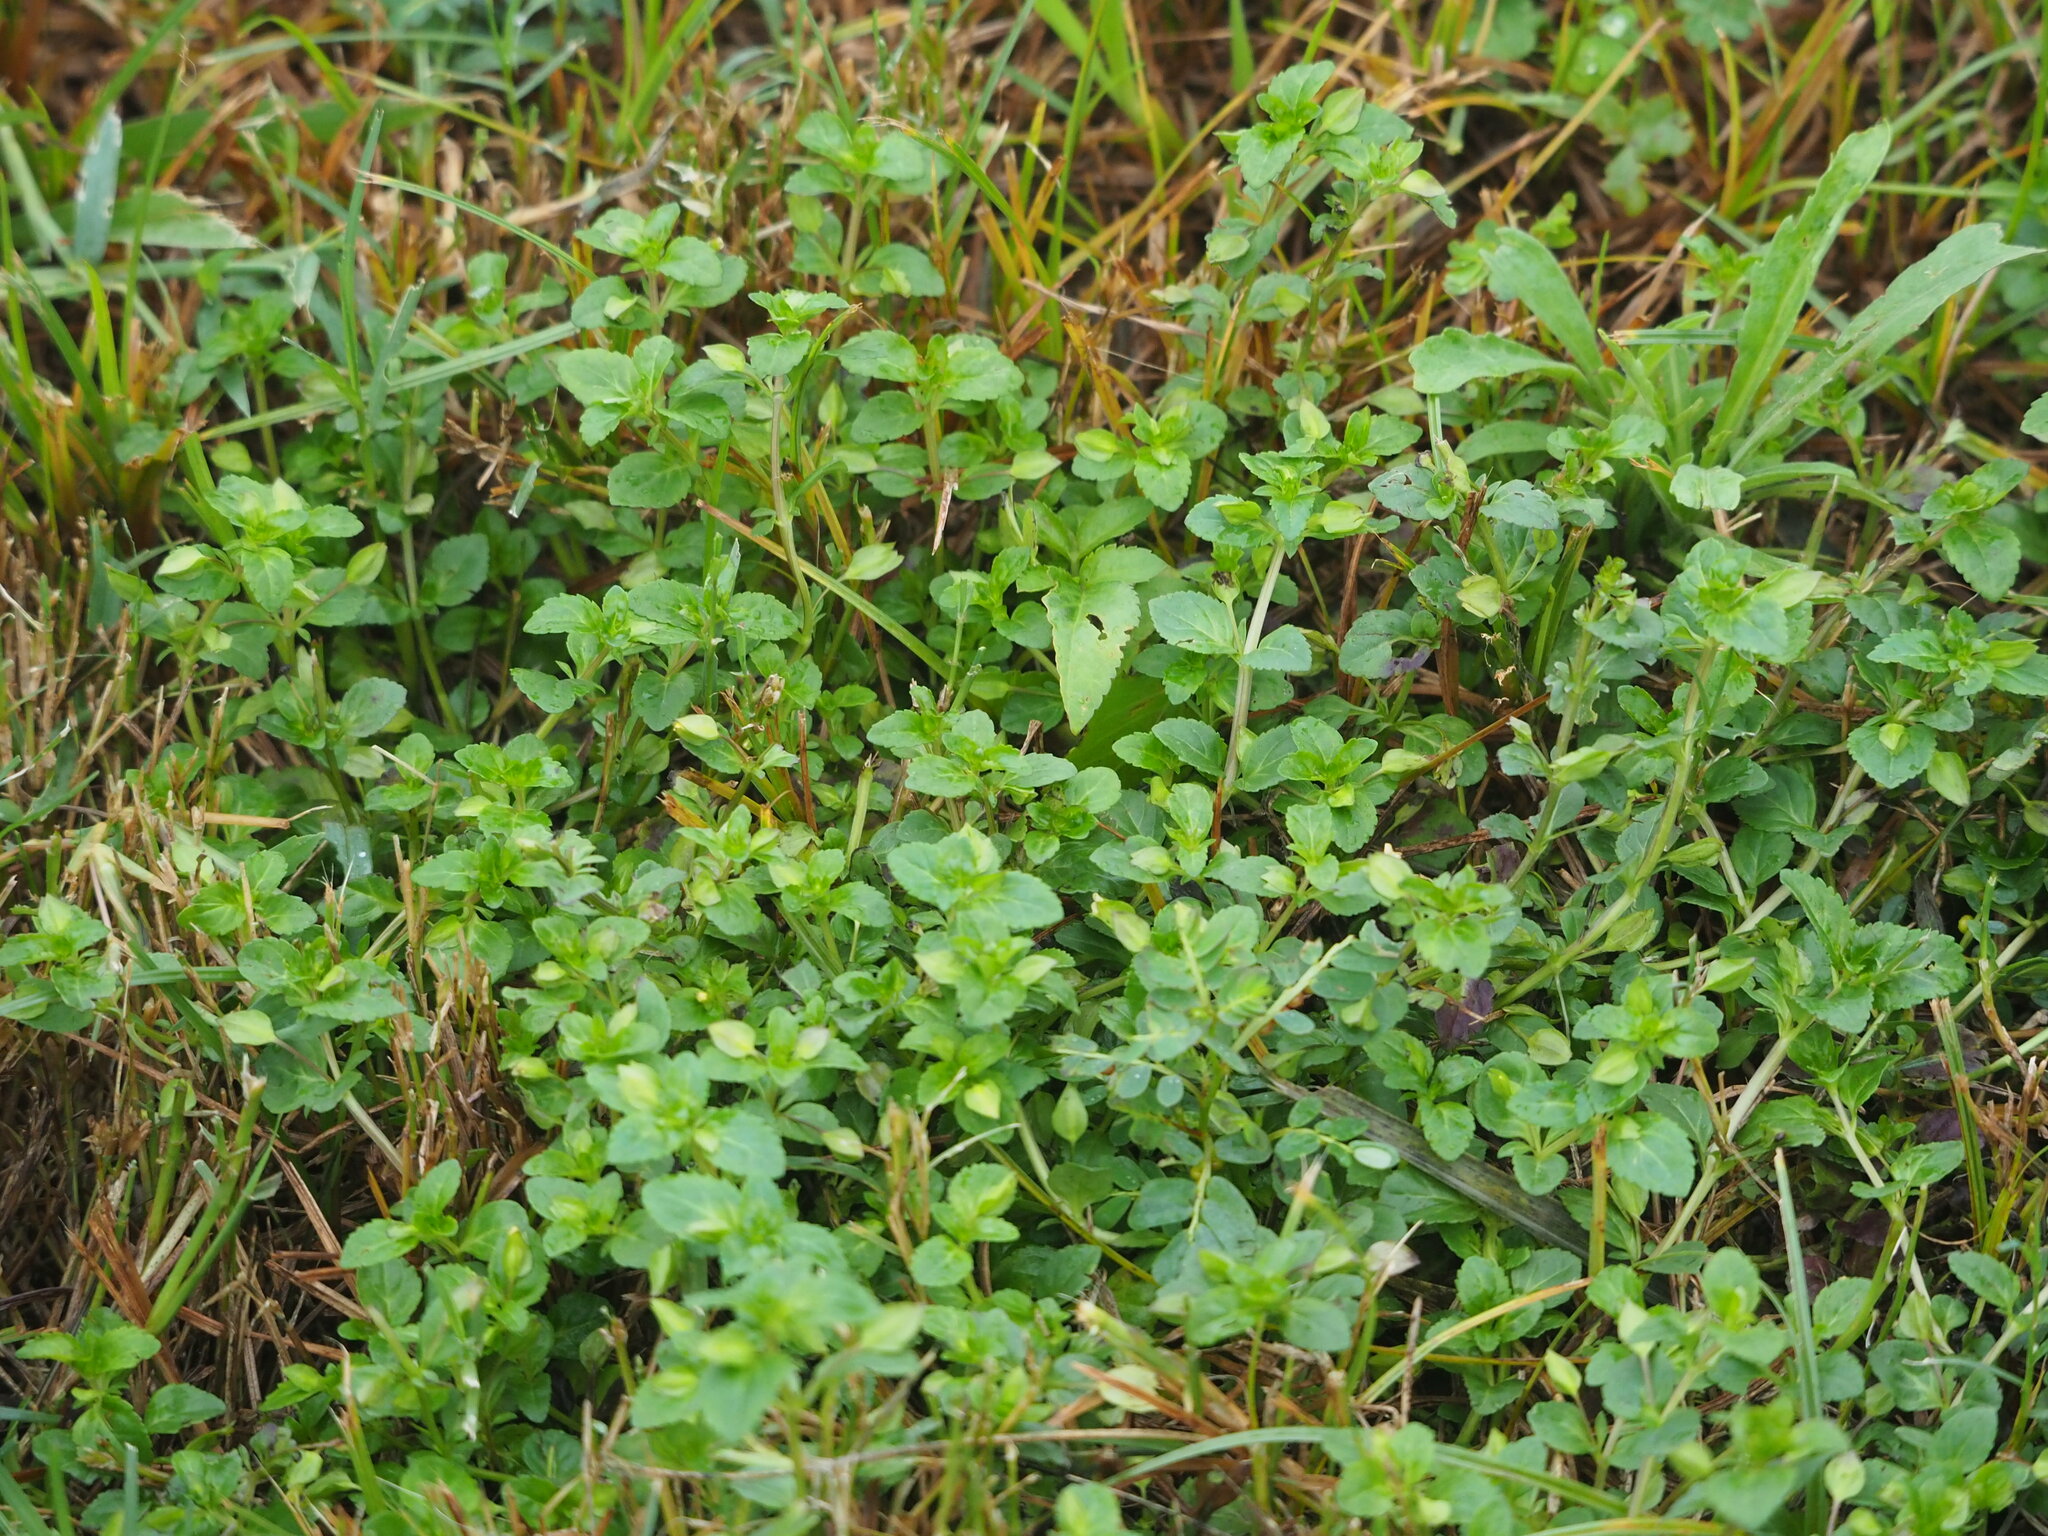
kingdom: Plantae
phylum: Tracheophyta
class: Magnoliopsida
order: Lamiales
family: Plantaginaceae
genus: Mecardonia
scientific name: Mecardonia procumbens
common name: Baby jump-up
